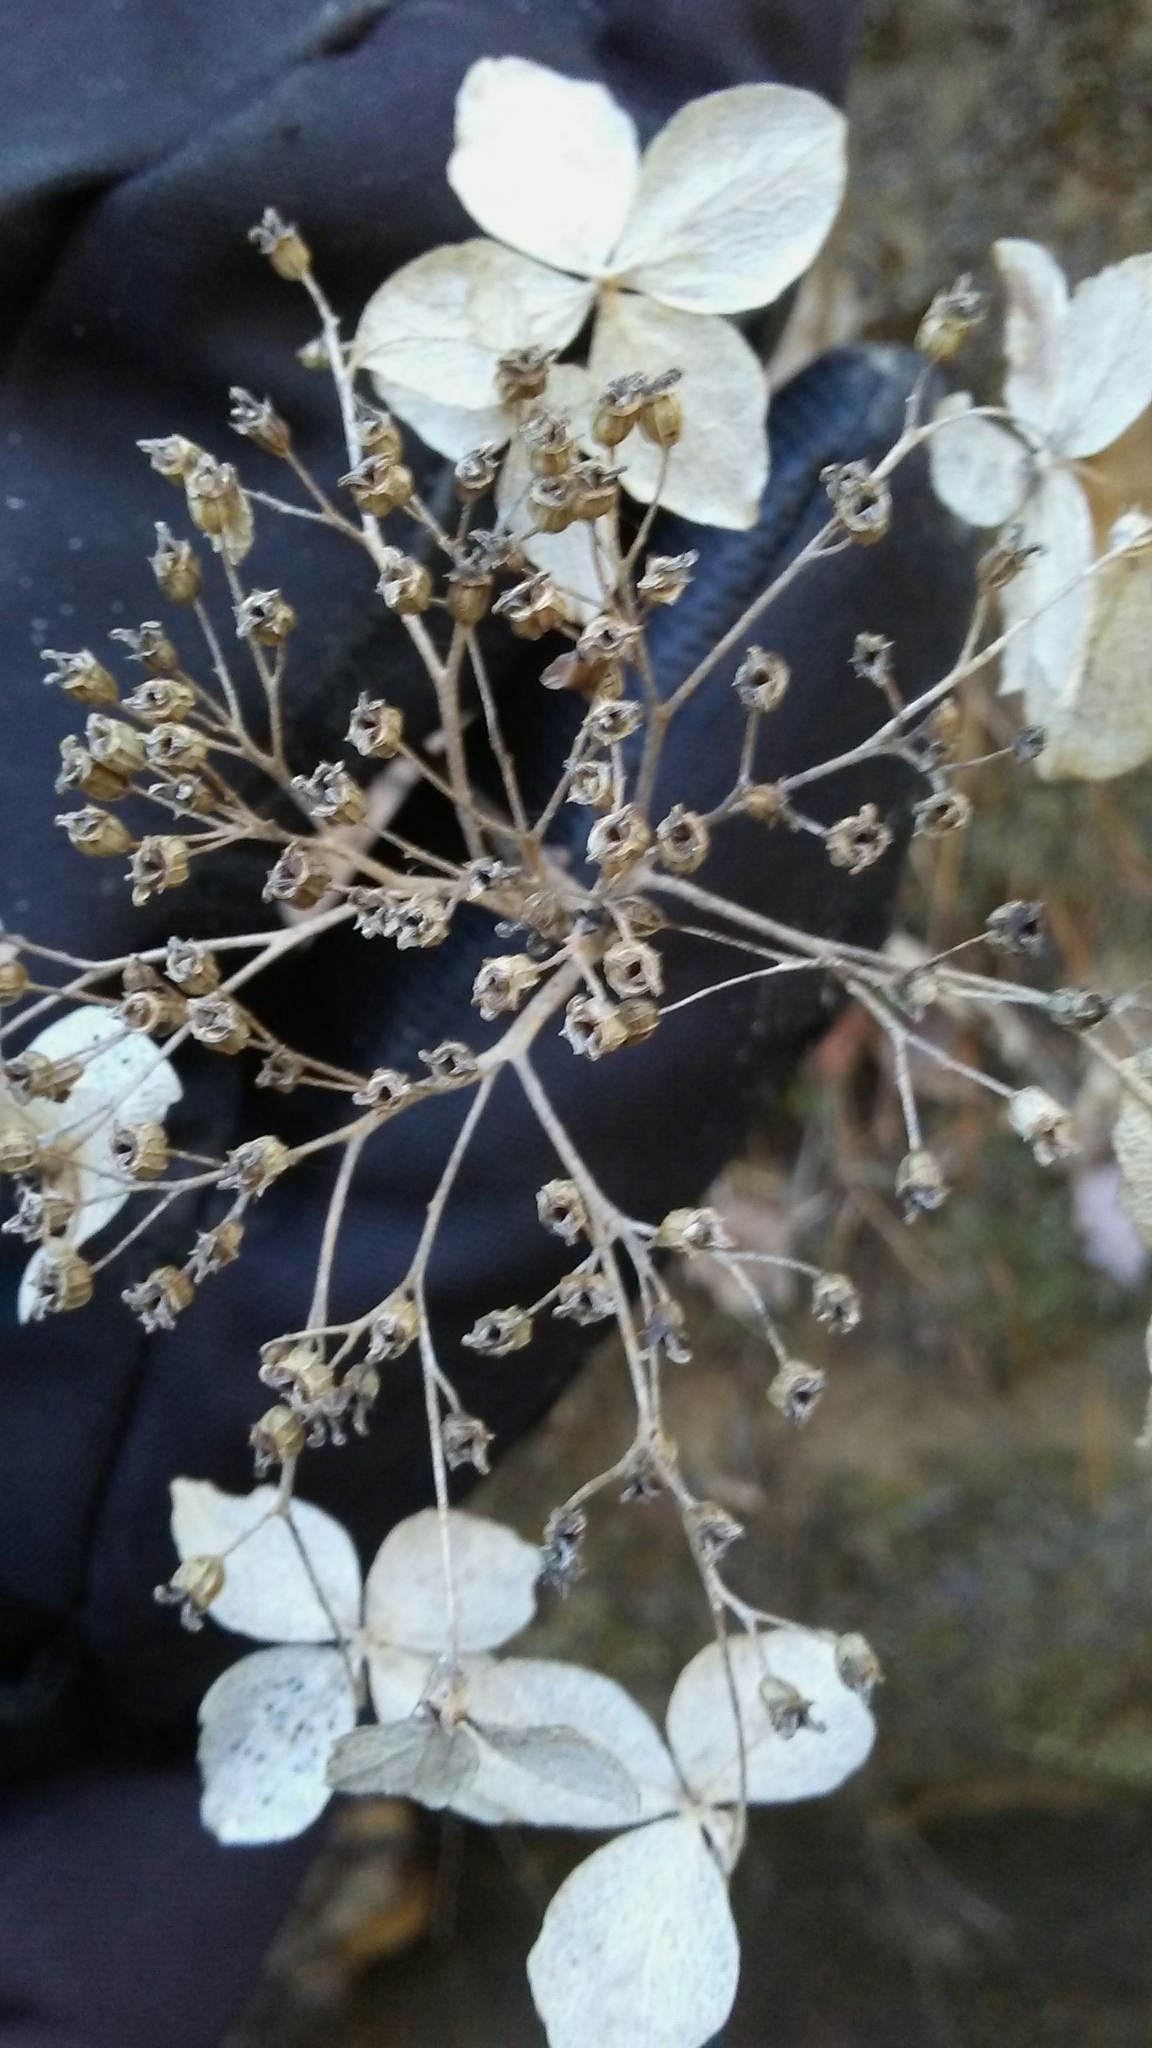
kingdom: Plantae
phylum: Tracheophyta
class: Magnoliopsida
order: Cornales
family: Hydrangeaceae
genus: Hydrangea
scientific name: Hydrangea arborescens
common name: Sevenbark
